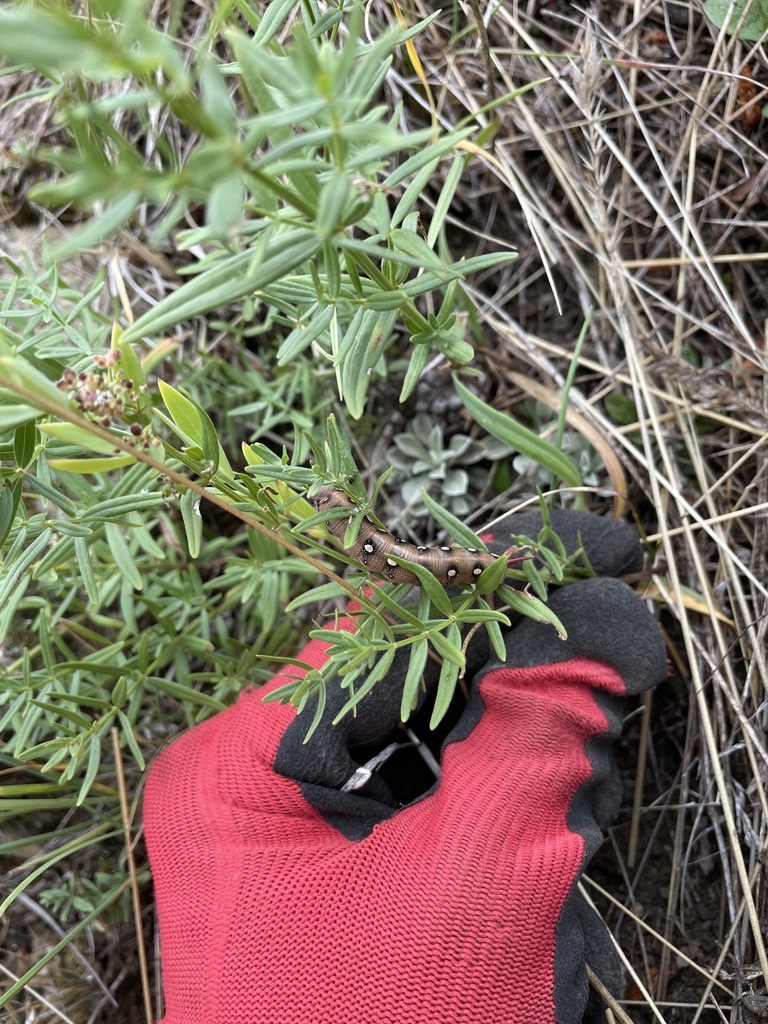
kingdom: Animalia
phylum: Arthropoda
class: Insecta
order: Lepidoptera
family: Sphingidae
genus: Hyles
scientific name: Hyles gallii
